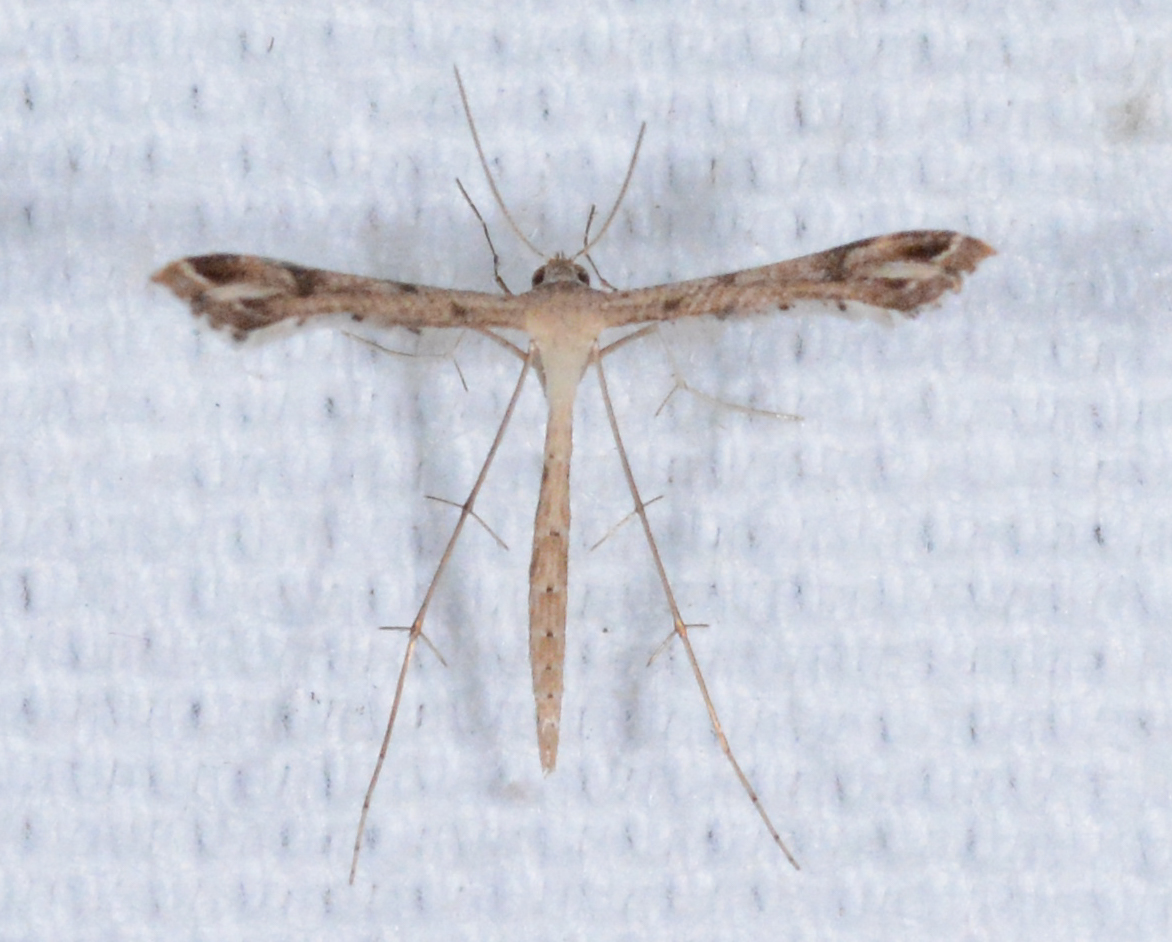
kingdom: Animalia
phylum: Arthropoda
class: Insecta
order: Lepidoptera
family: Pterophoridae
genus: Stenoptilodes
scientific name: Stenoptilodes
